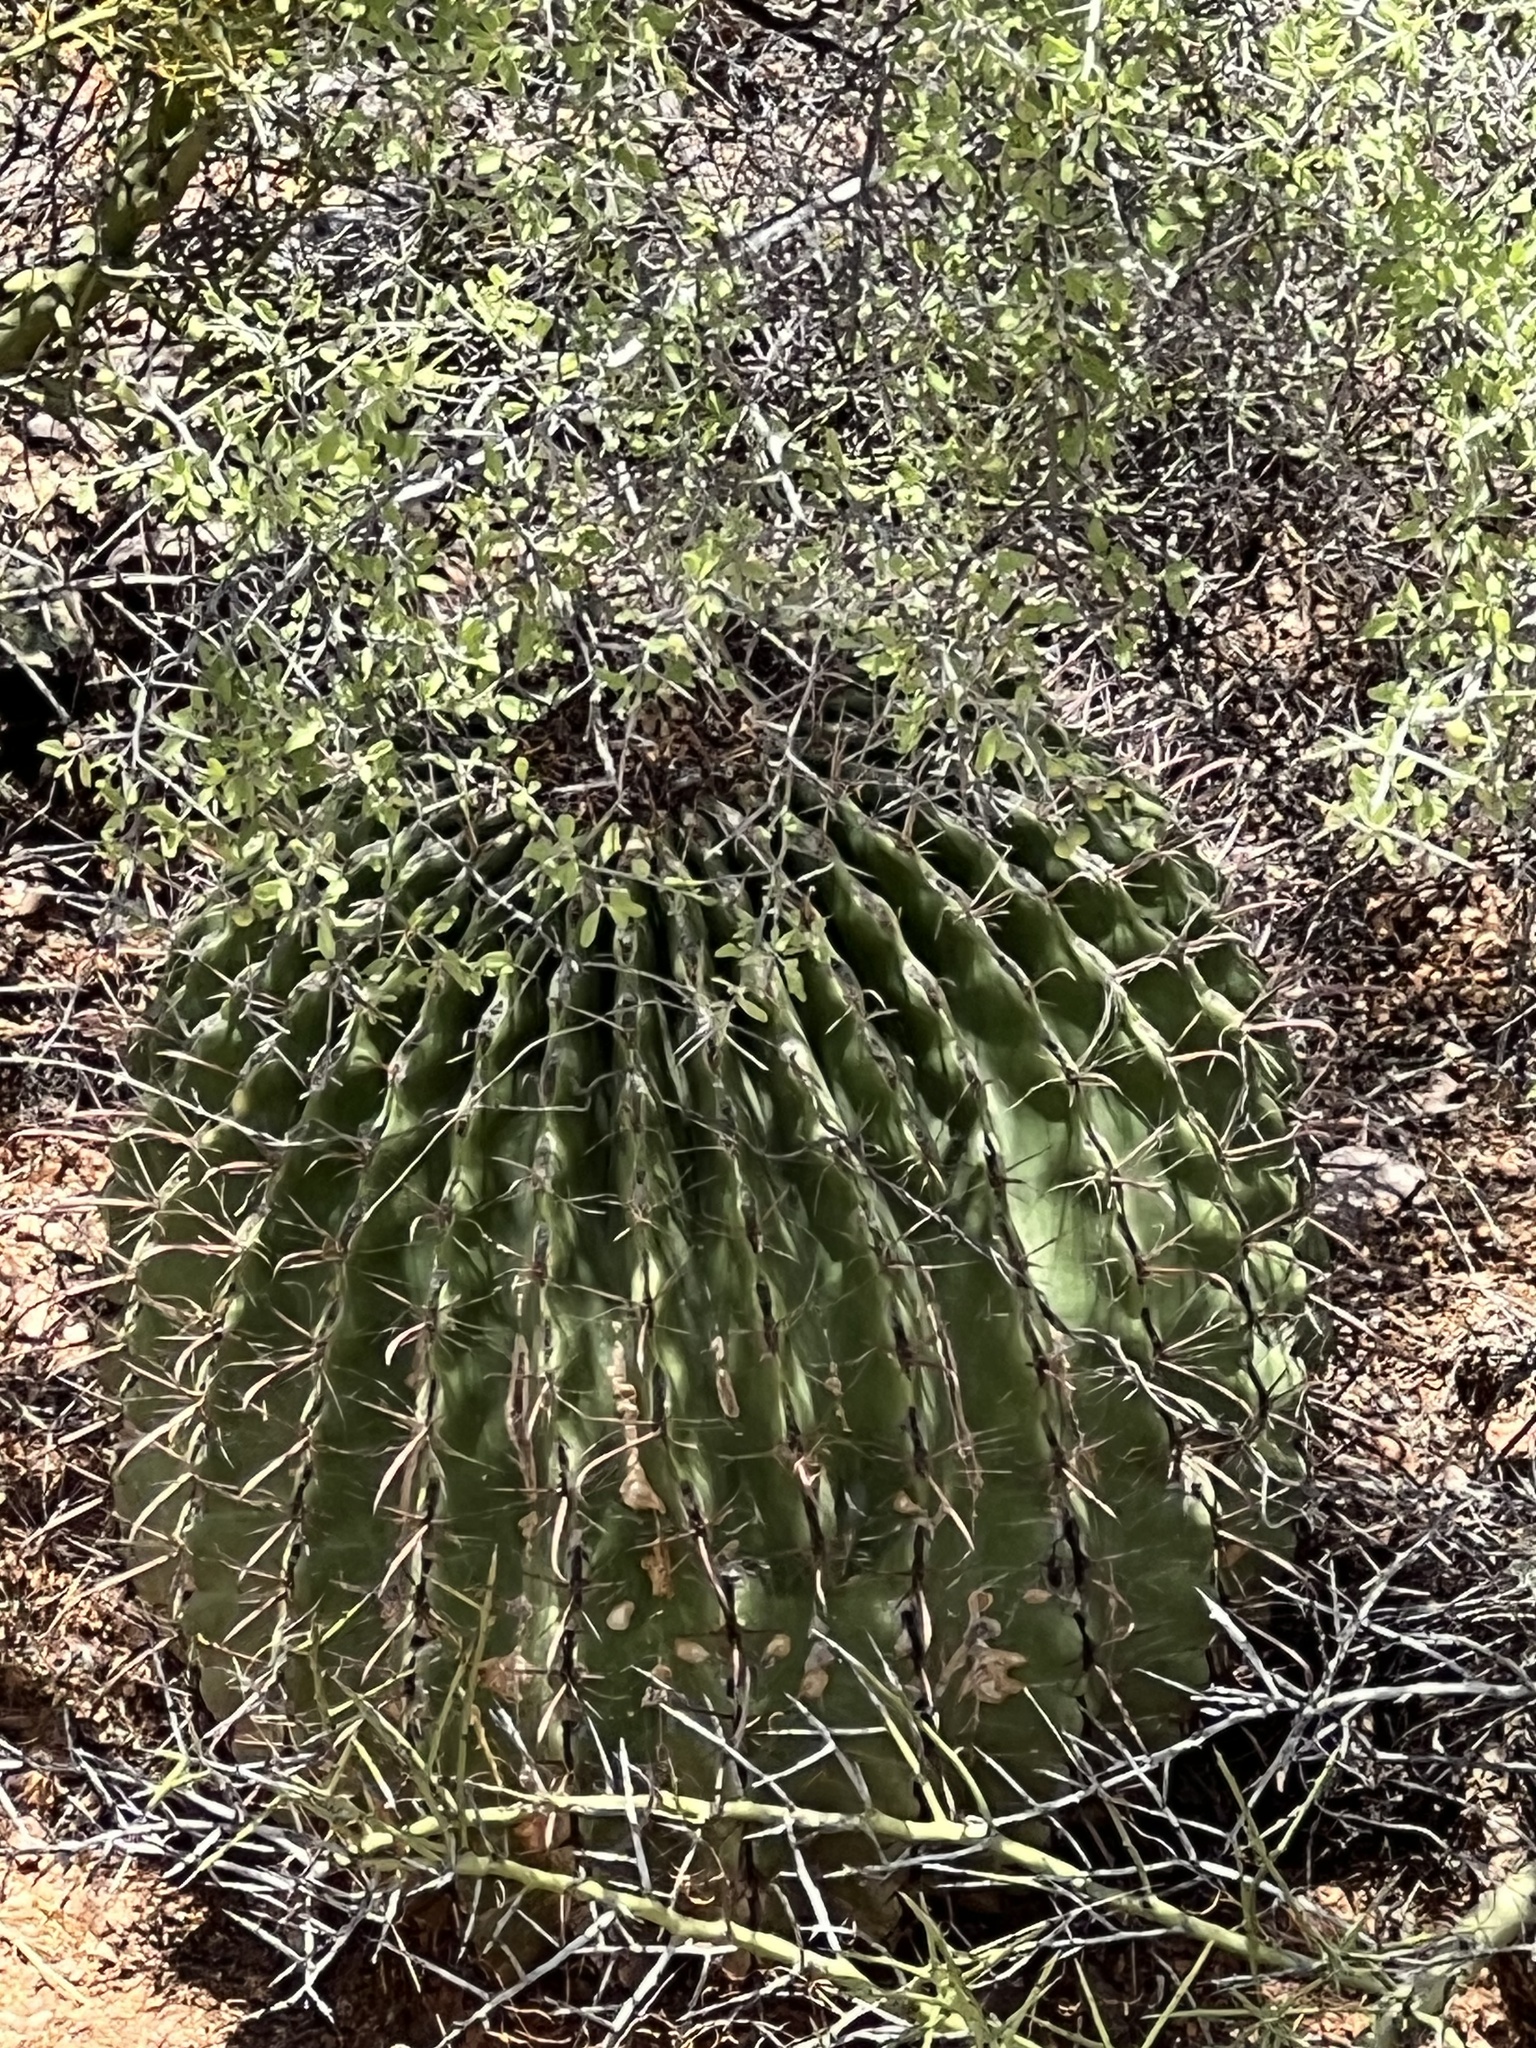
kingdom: Plantae
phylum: Tracheophyta
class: Magnoliopsida
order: Caryophyllales
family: Cactaceae
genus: Ferocactus
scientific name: Ferocactus wislizeni
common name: Candy barrel cactus
